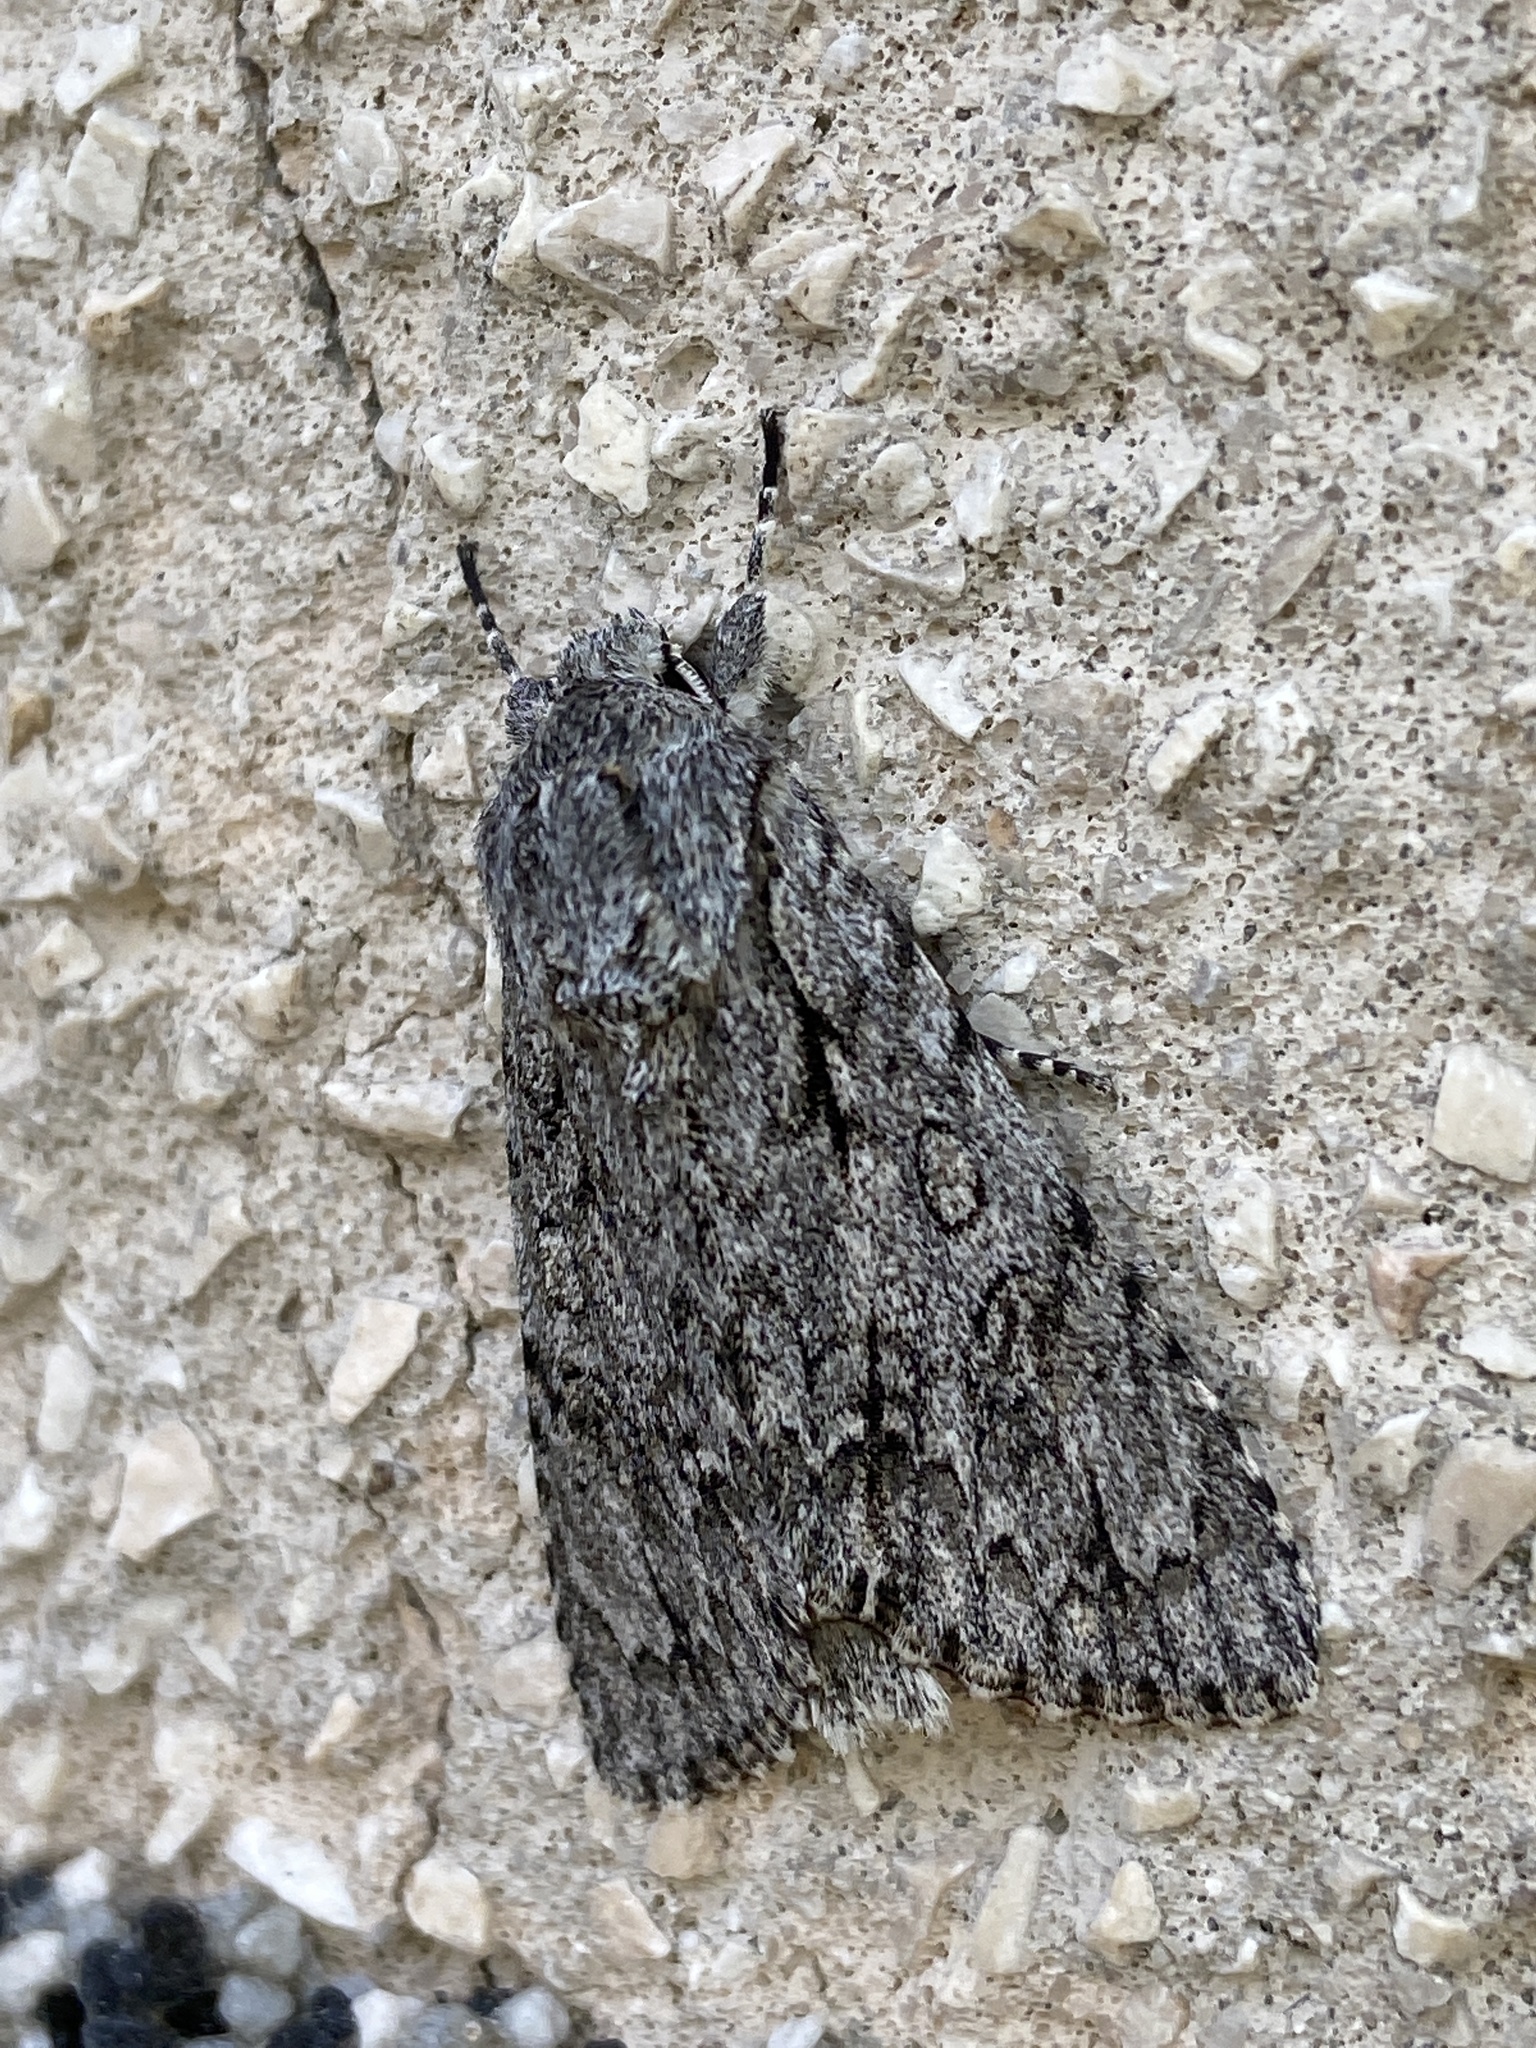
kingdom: Animalia
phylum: Arthropoda
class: Insecta
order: Lepidoptera
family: Noctuidae
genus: Acronicta
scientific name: Acronicta aceris
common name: Sycamore
